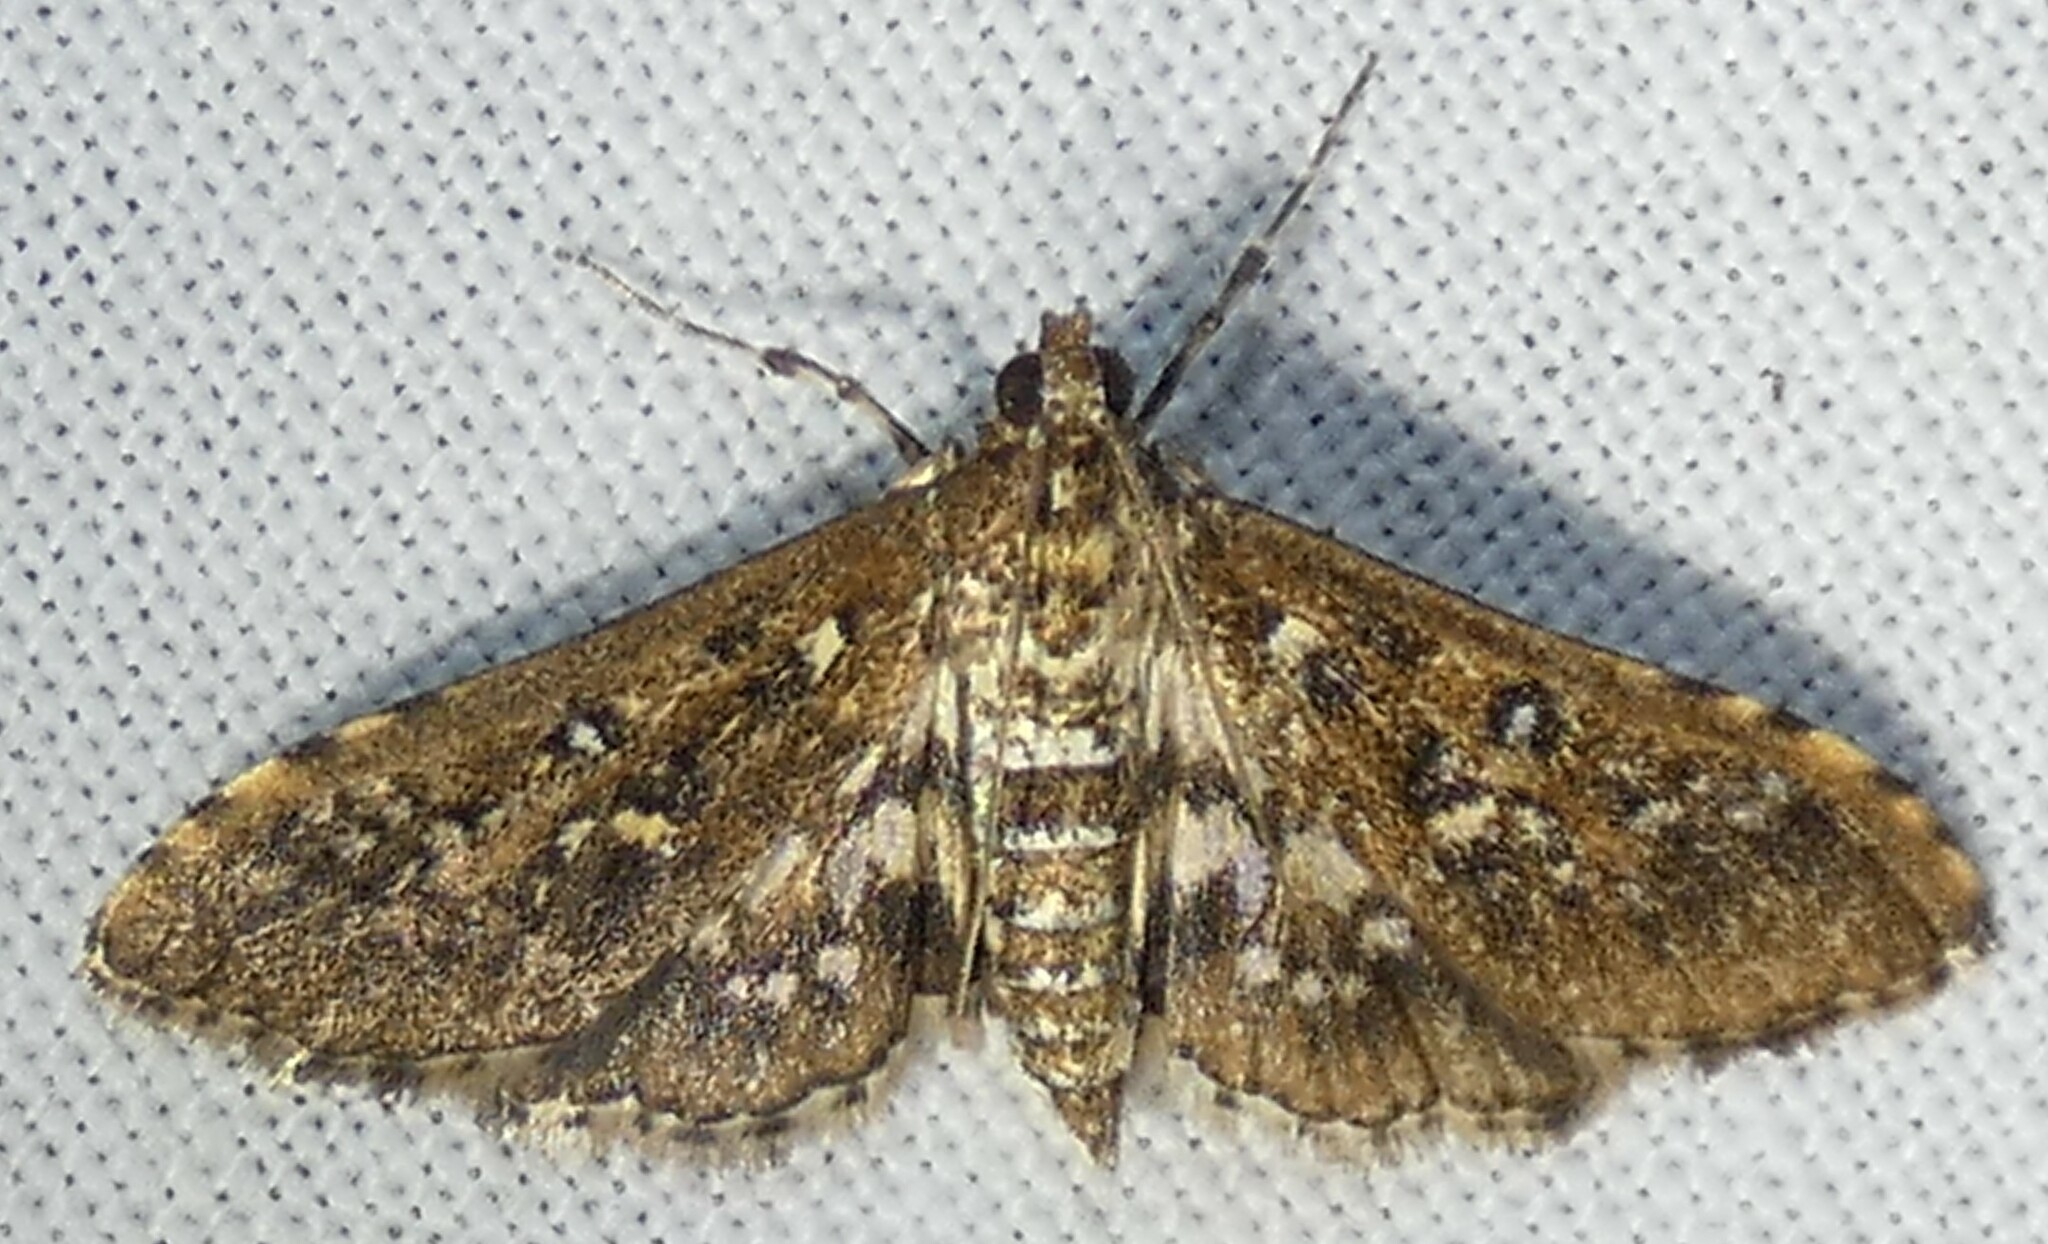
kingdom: Animalia
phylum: Arthropoda
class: Insecta
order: Lepidoptera
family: Crambidae
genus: Samea
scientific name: Samea multiplicalis
